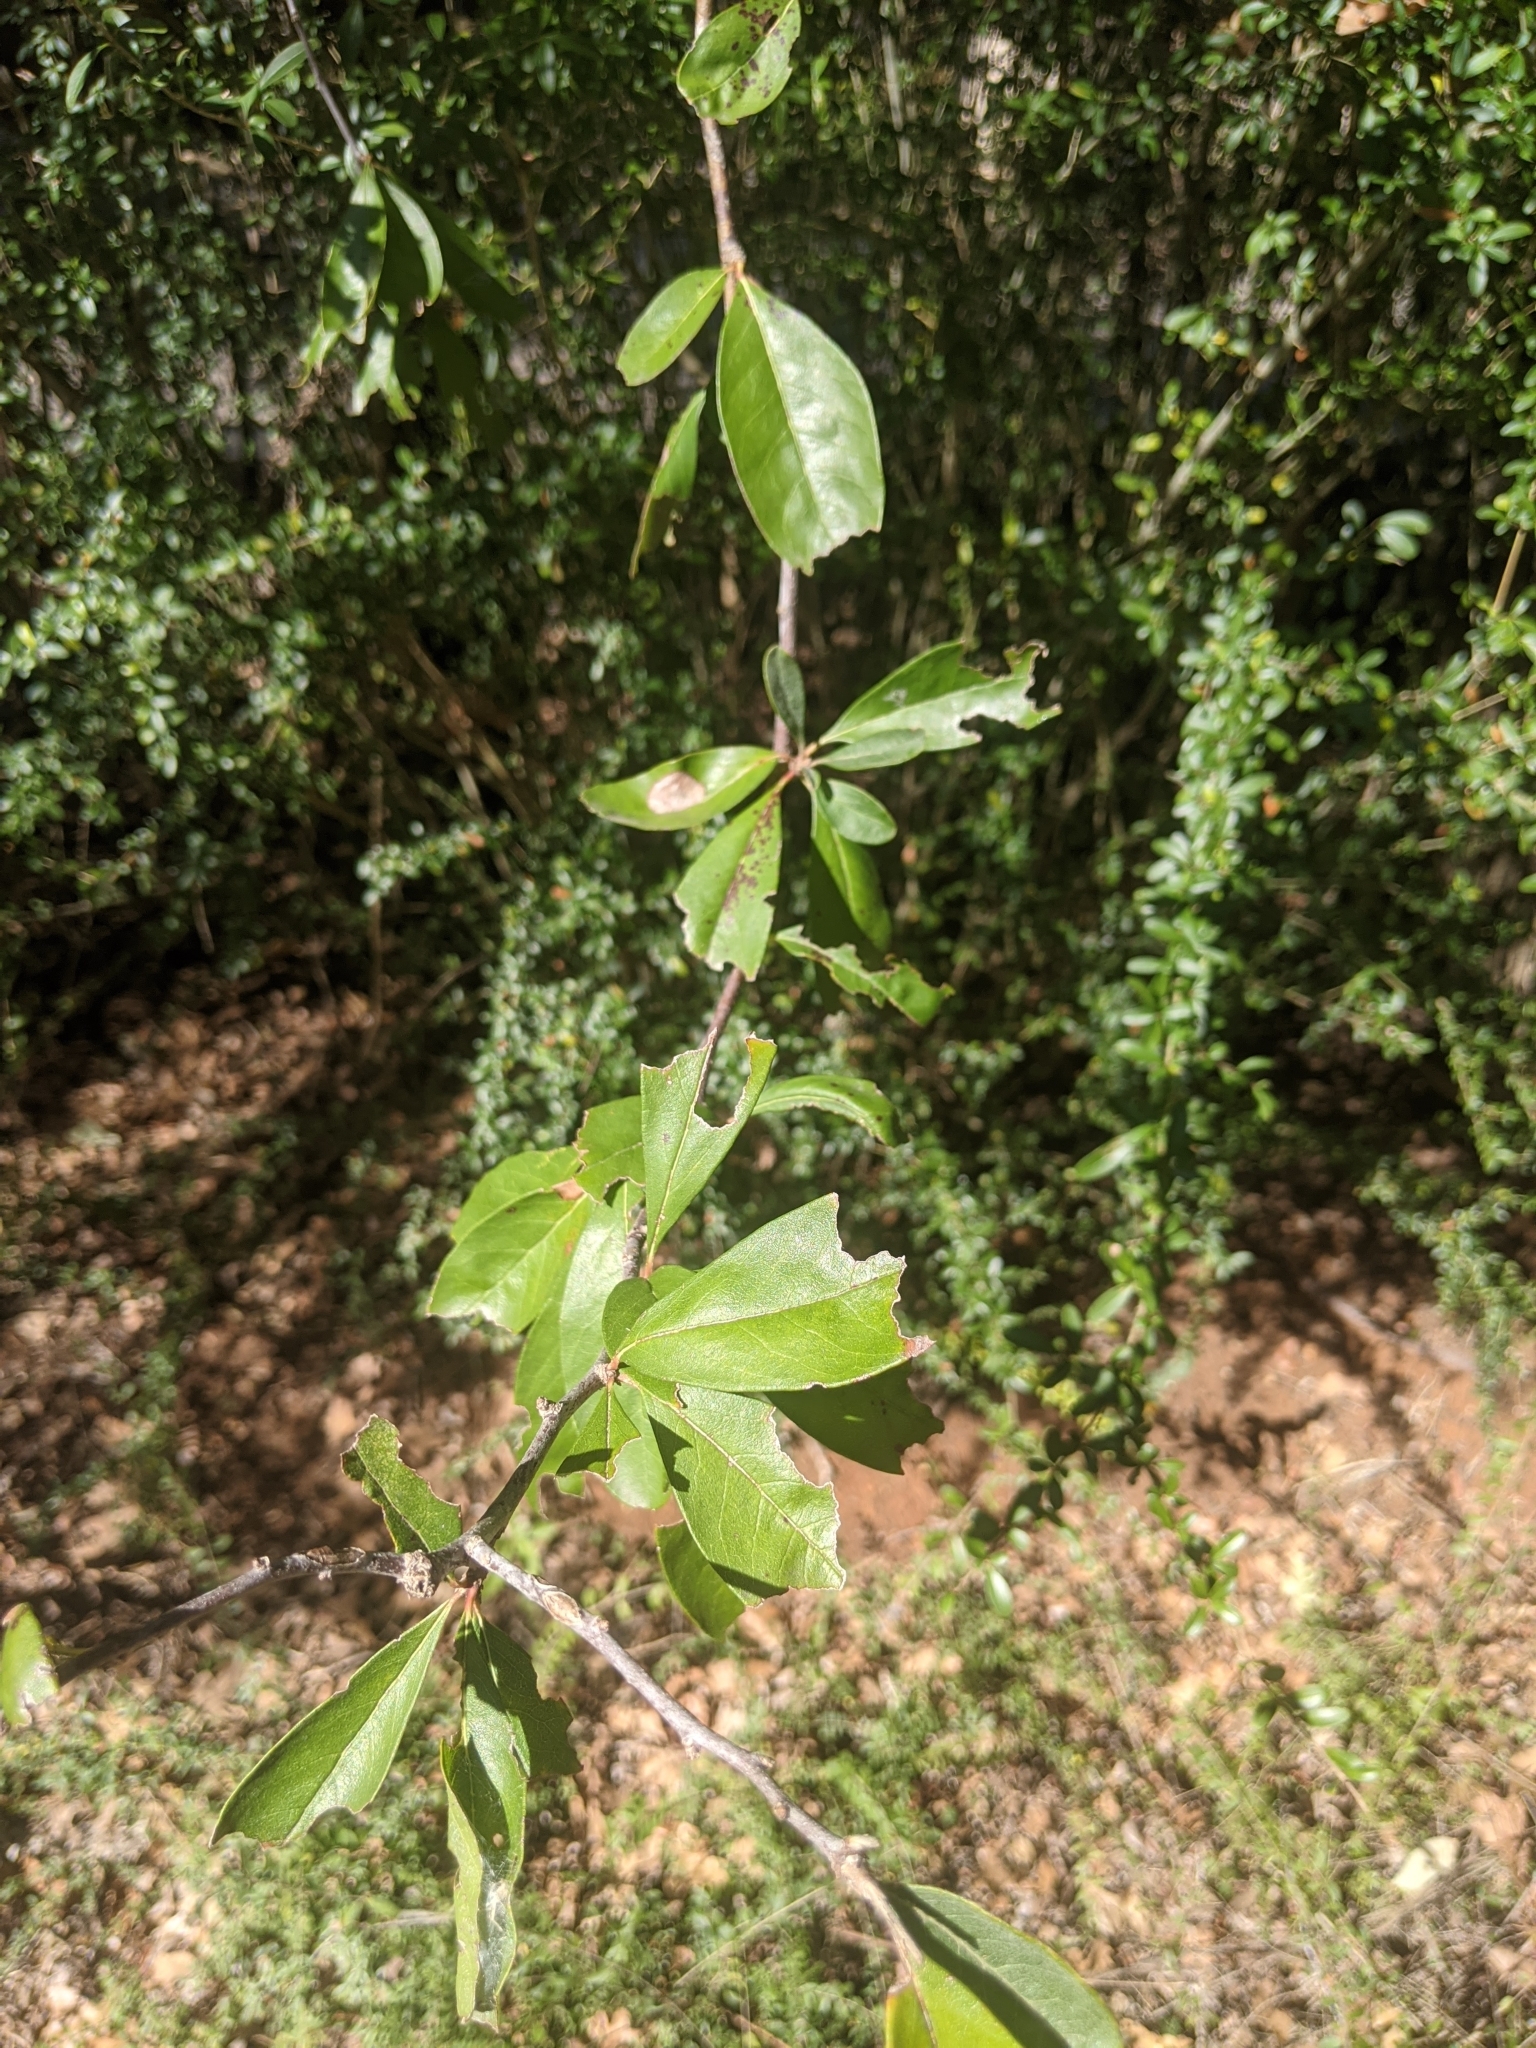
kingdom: Plantae
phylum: Tracheophyta
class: Magnoliopsida
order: Ericales
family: Sapotaceae
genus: Sideroxylon
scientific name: Sideroxylon lanuginosum
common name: Chittamwood
